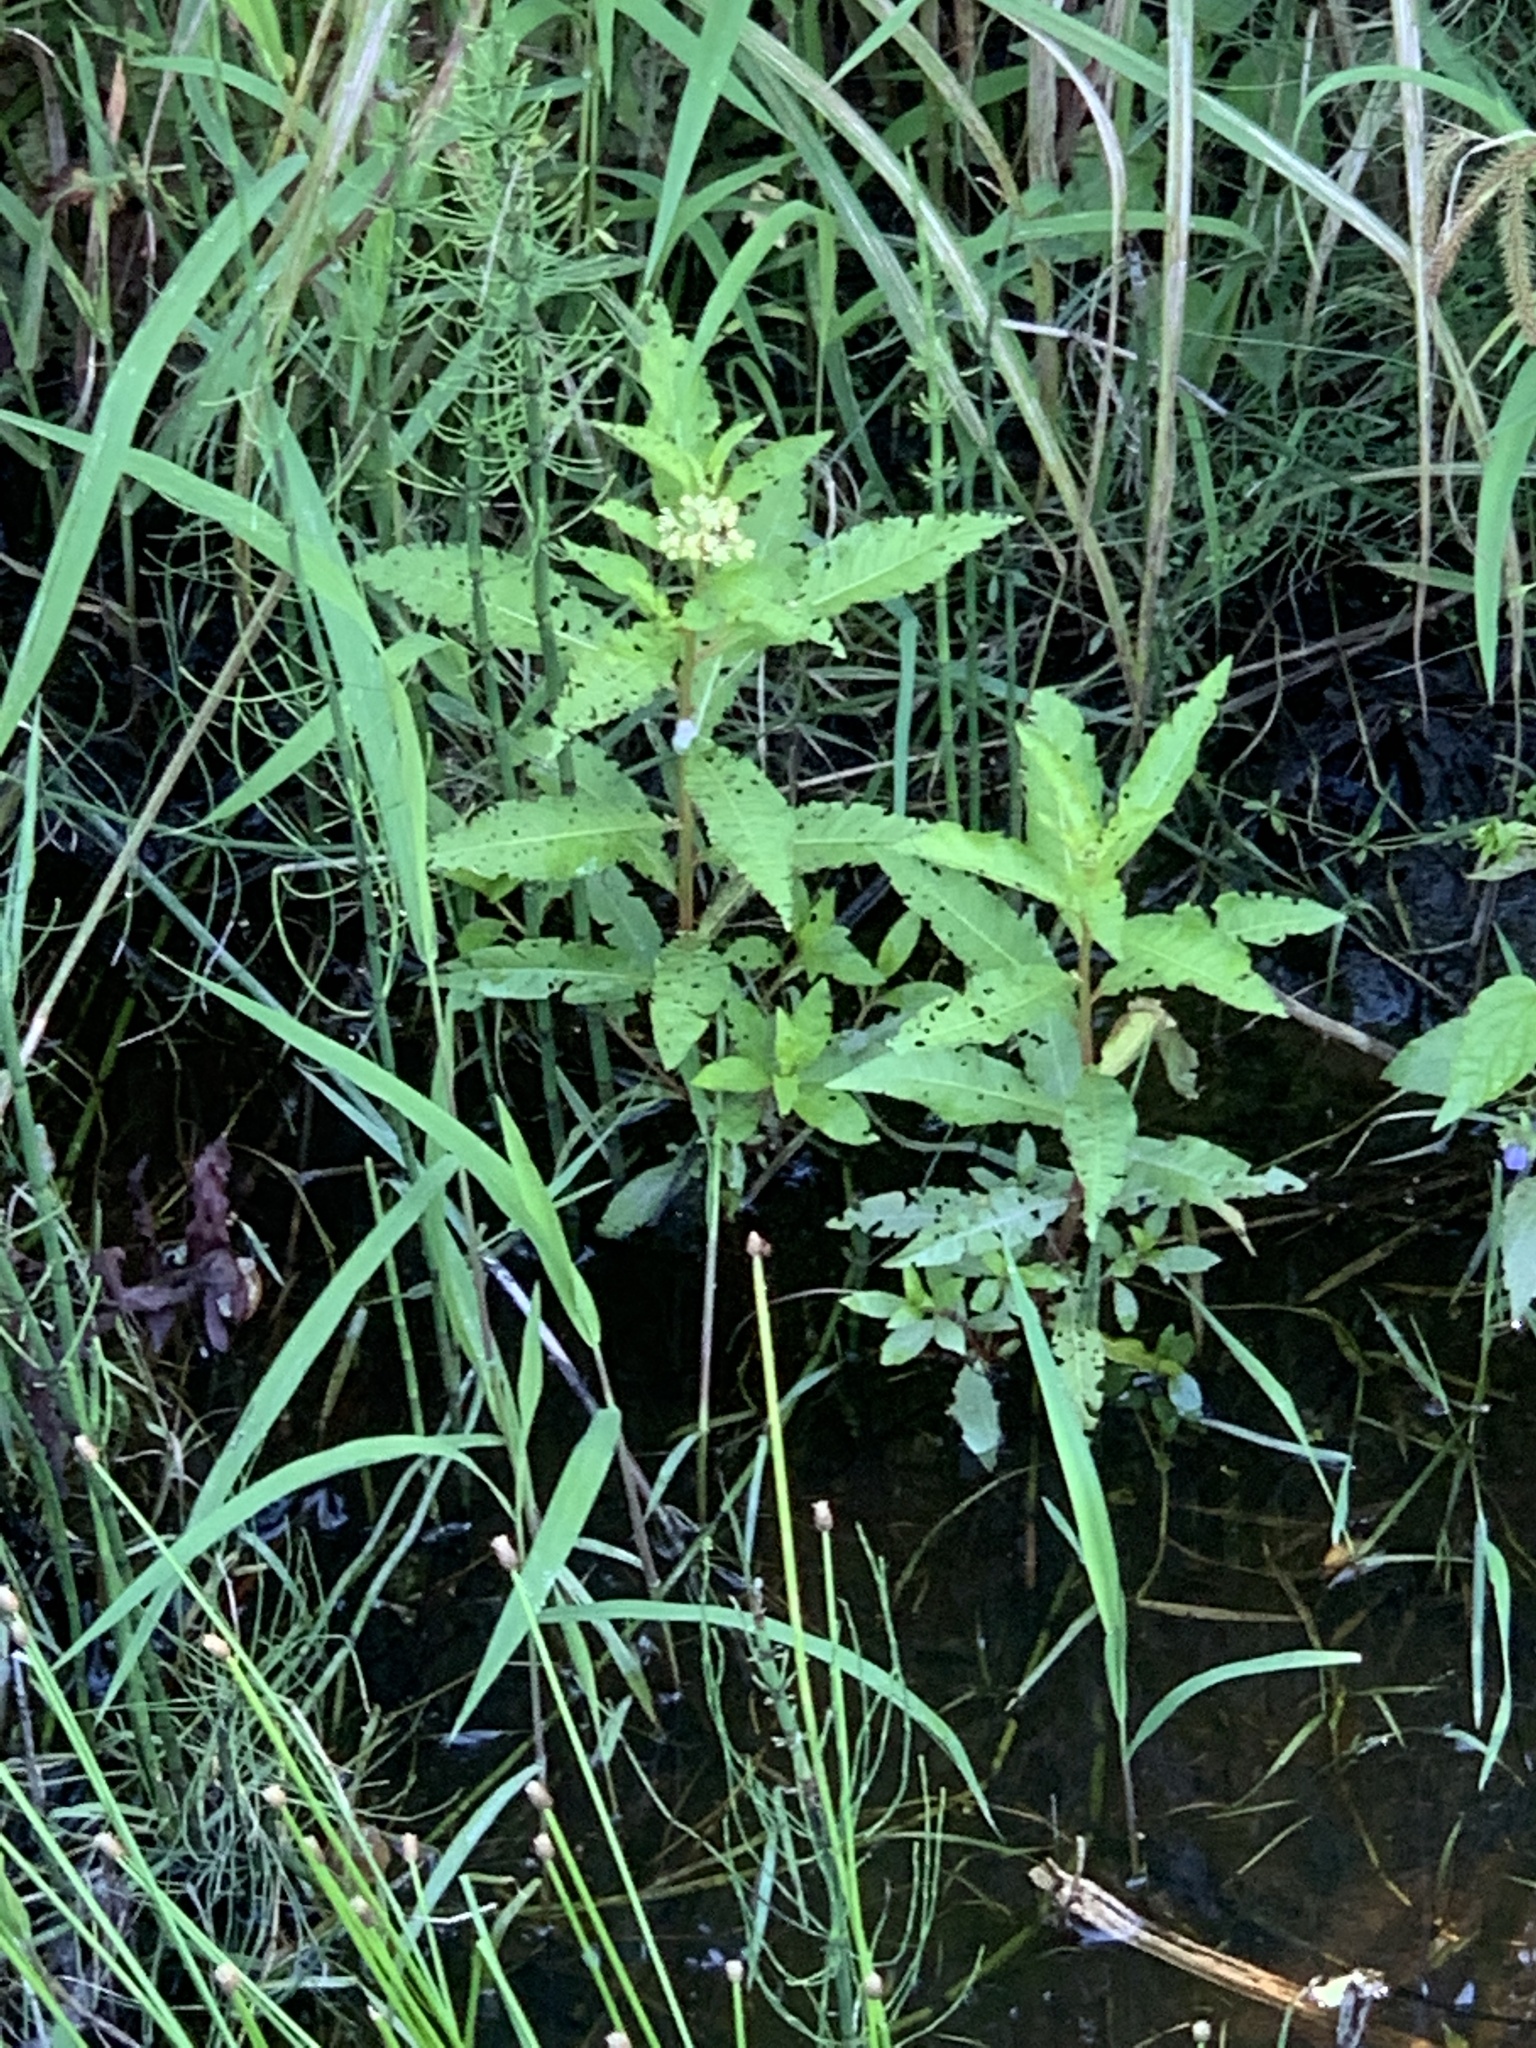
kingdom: Plantae
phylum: Tracheophyta
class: Magnoliopsida
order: Saxifragales
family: Penthoraceae
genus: Penthorum
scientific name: Penthorum sedoides
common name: Ditch stonecrop
